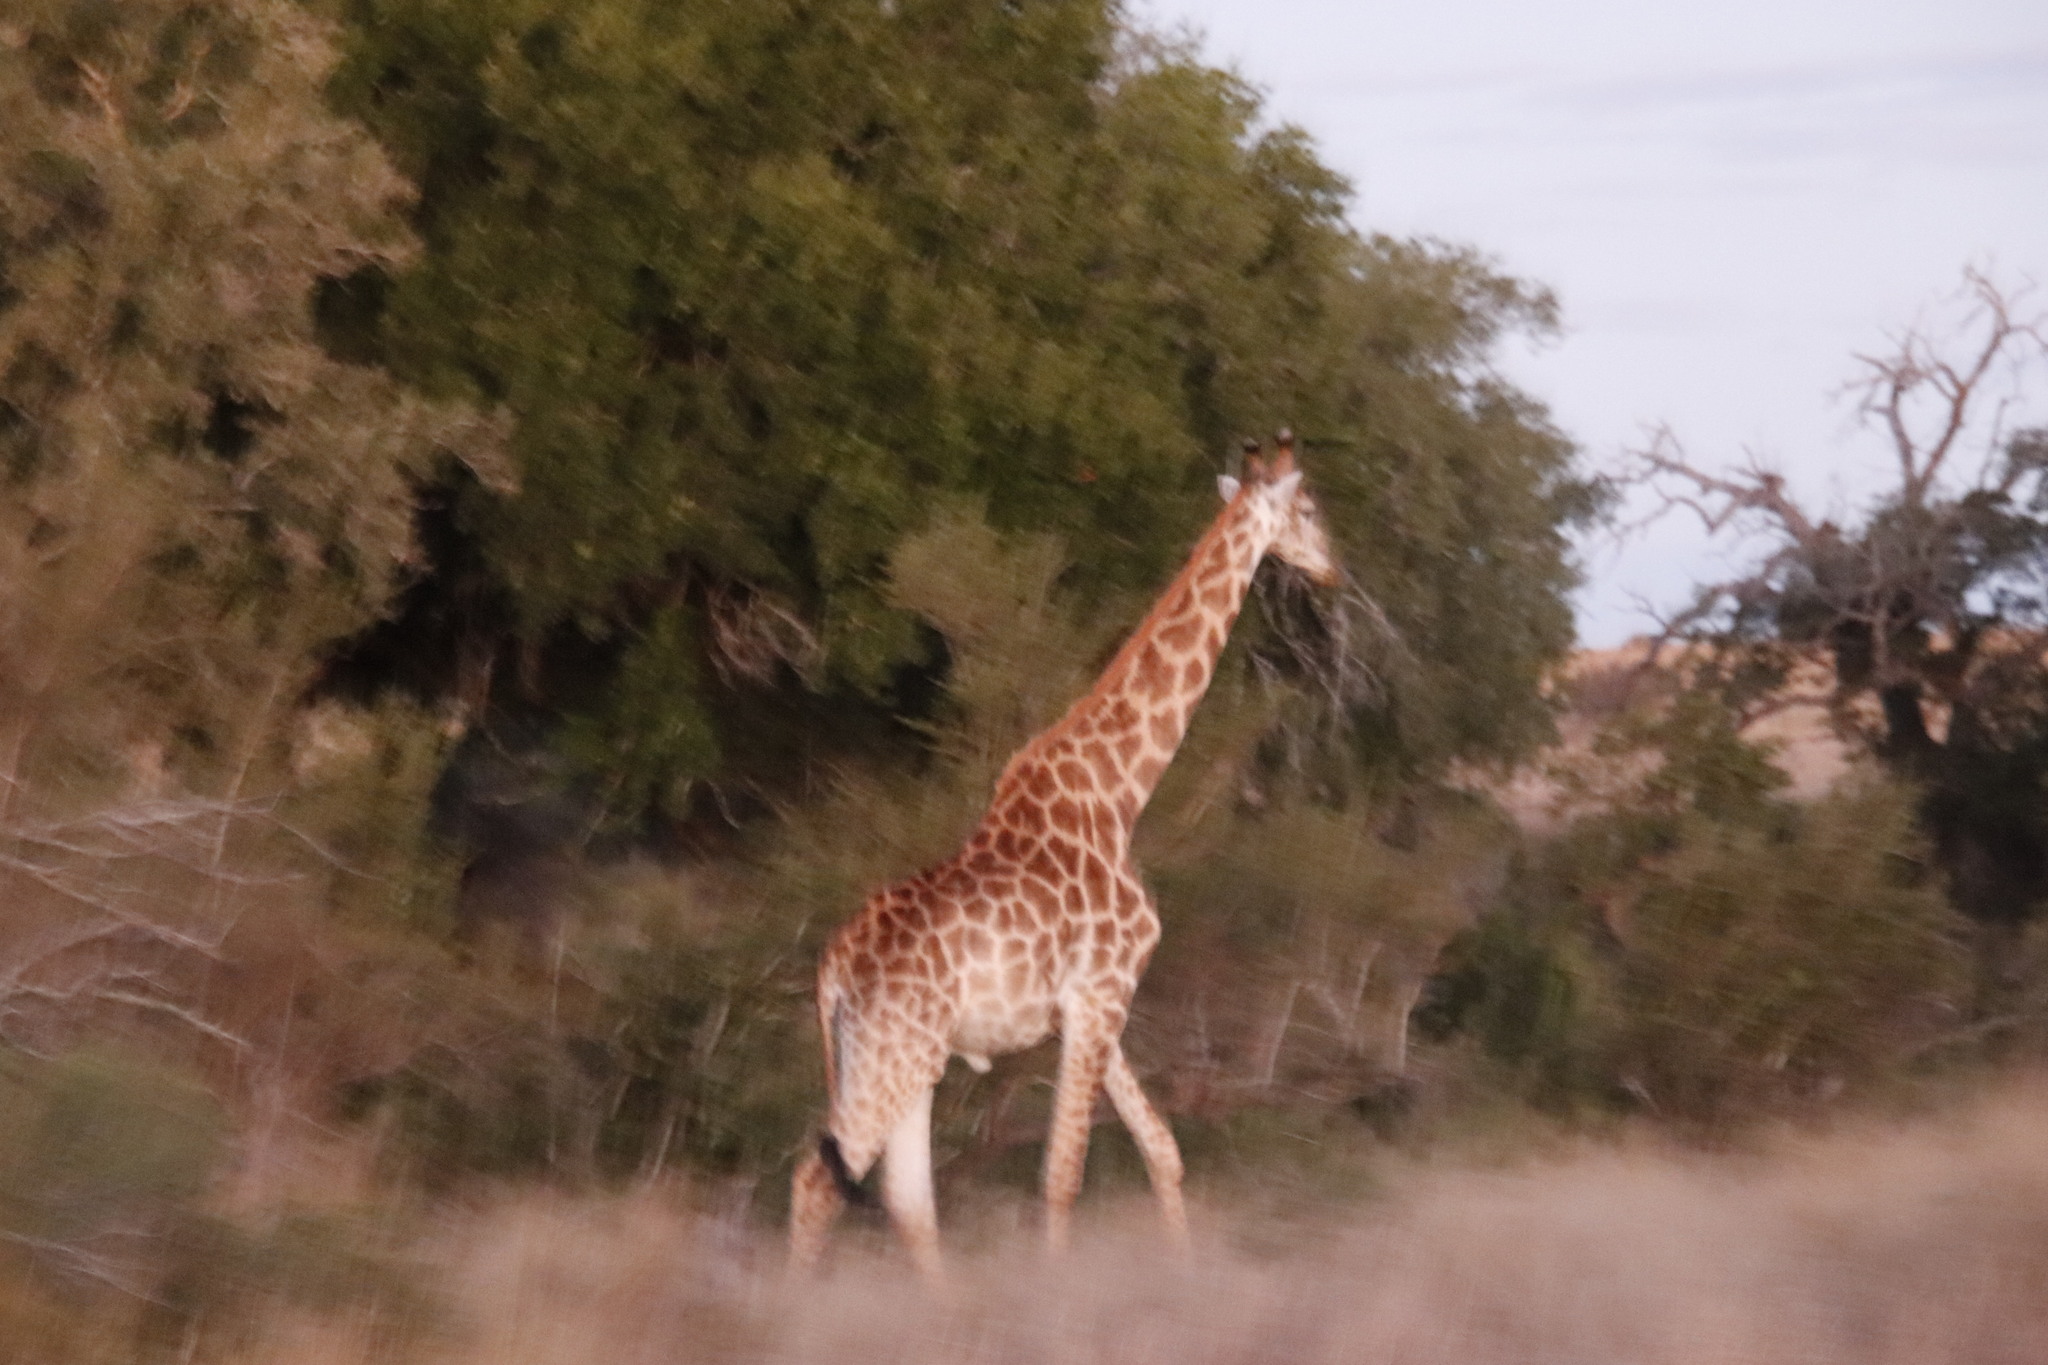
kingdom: Animalia
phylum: Chordata
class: Mammalia
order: Artiodactyla
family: Giraffidae
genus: Giraffa
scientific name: Giraffa giraffa
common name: Southern giraffe
